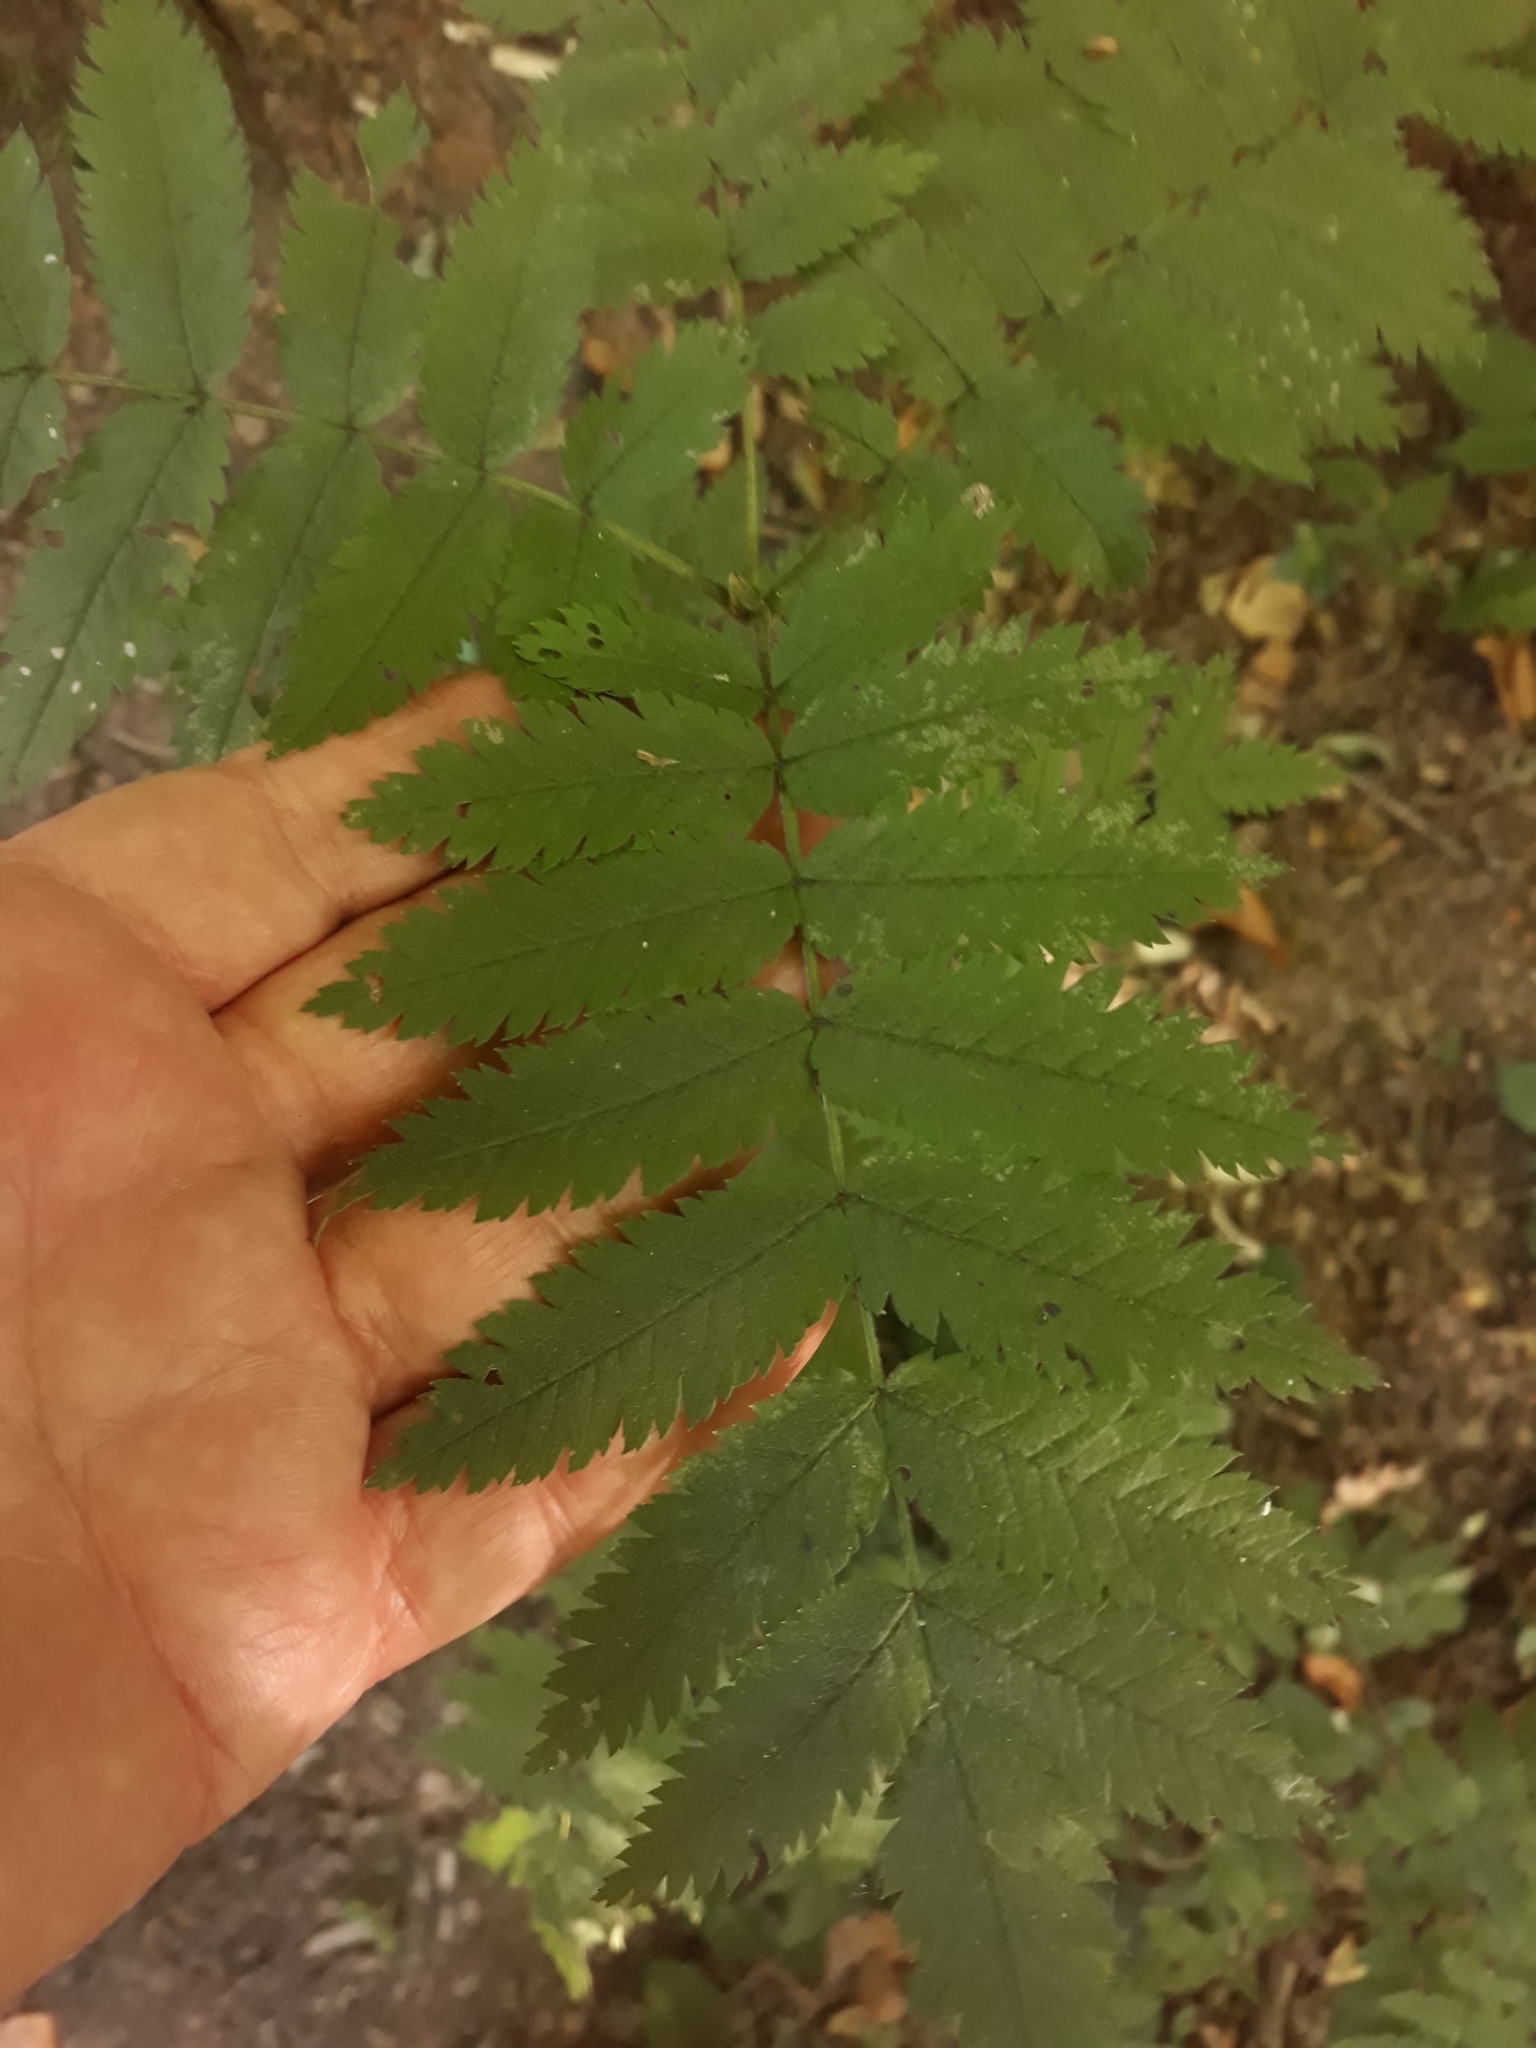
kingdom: Plantae
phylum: Tracheophyta
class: Magnoliopsida
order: Rosales
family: Rosaceae
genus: Sorbus
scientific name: Sorbus aucuparia
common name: Rowan
